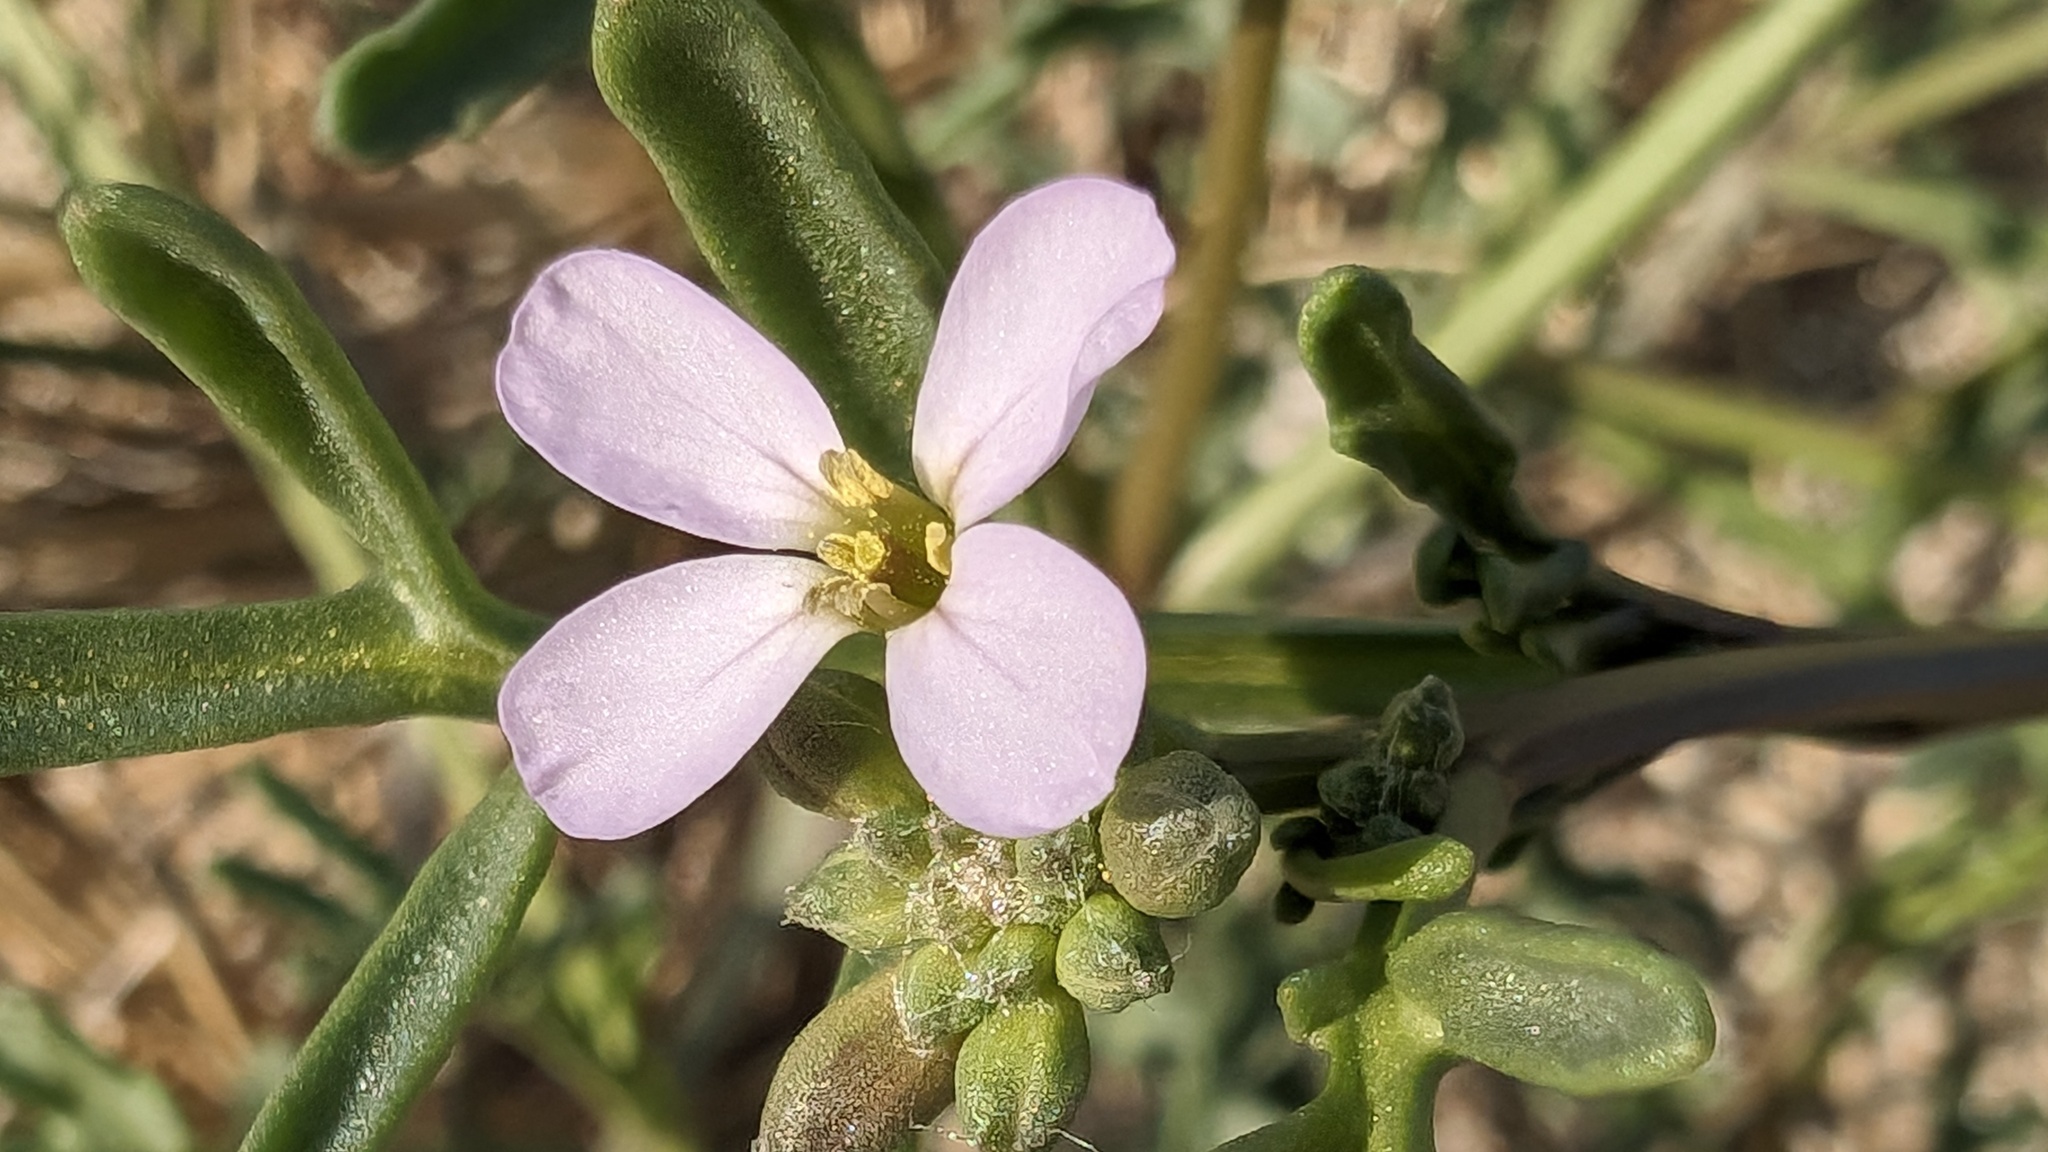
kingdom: Plantae
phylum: Tracheophyta
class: Magnoliopsida
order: Brassicales
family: Brassicaceae
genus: Cakile
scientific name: Cakile maritima
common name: Sea rocket
